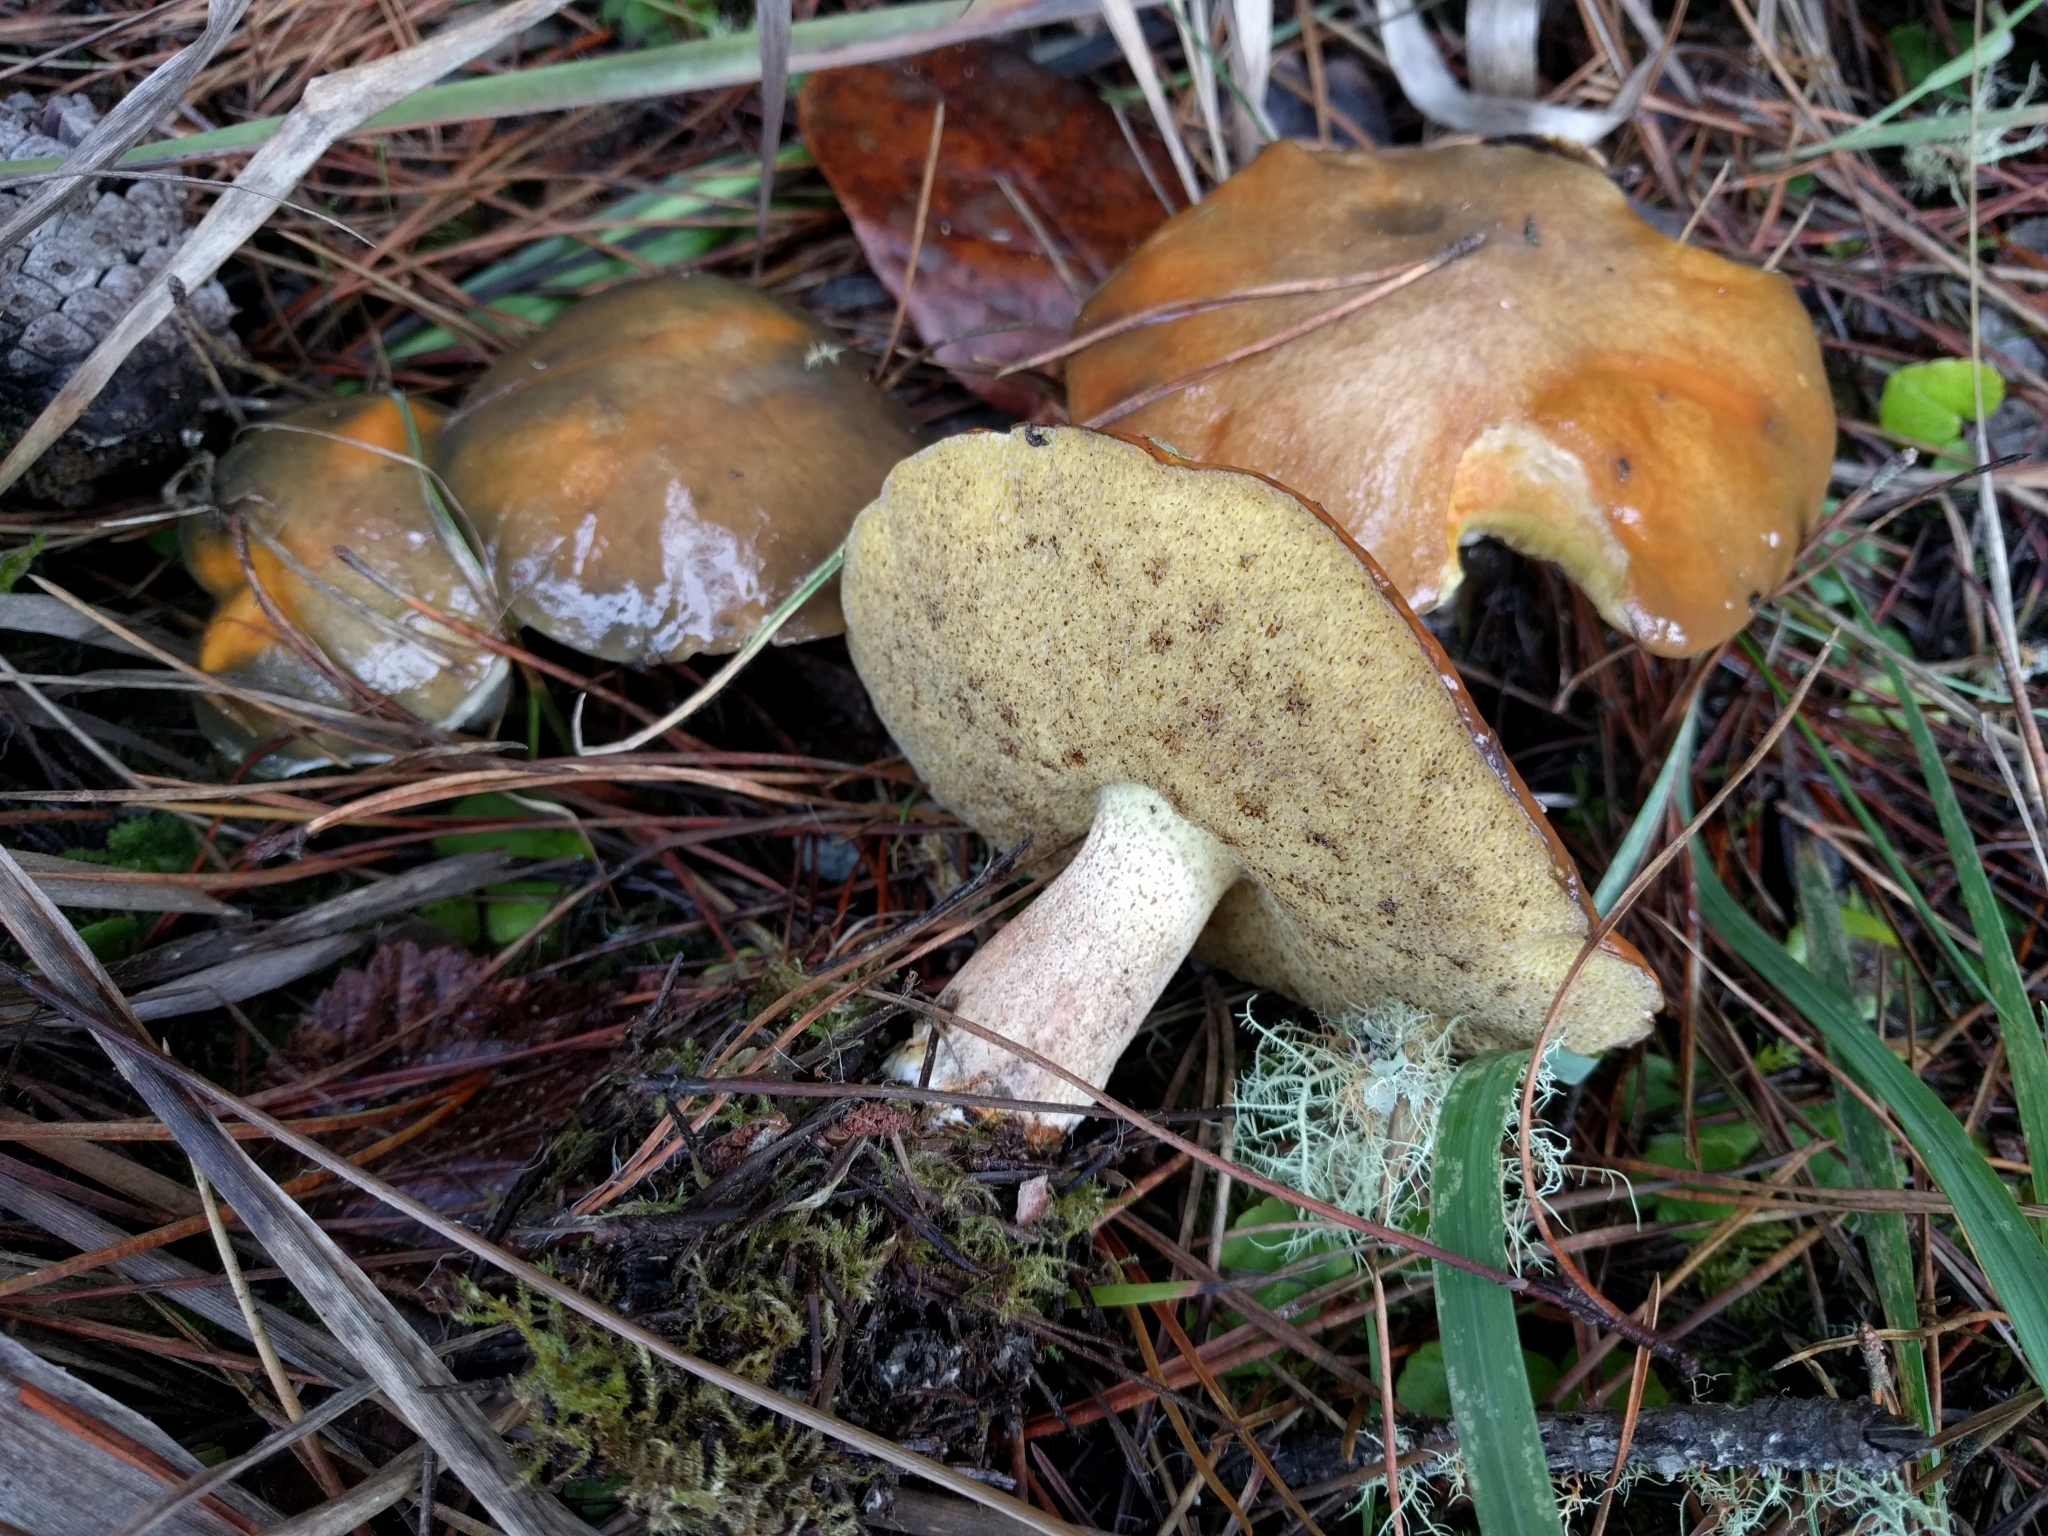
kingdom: Fungi
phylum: Basidiomycota
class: Agaricomycetes
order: Boletales
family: Suillaceae
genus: Suillus
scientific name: Suillus pungens
